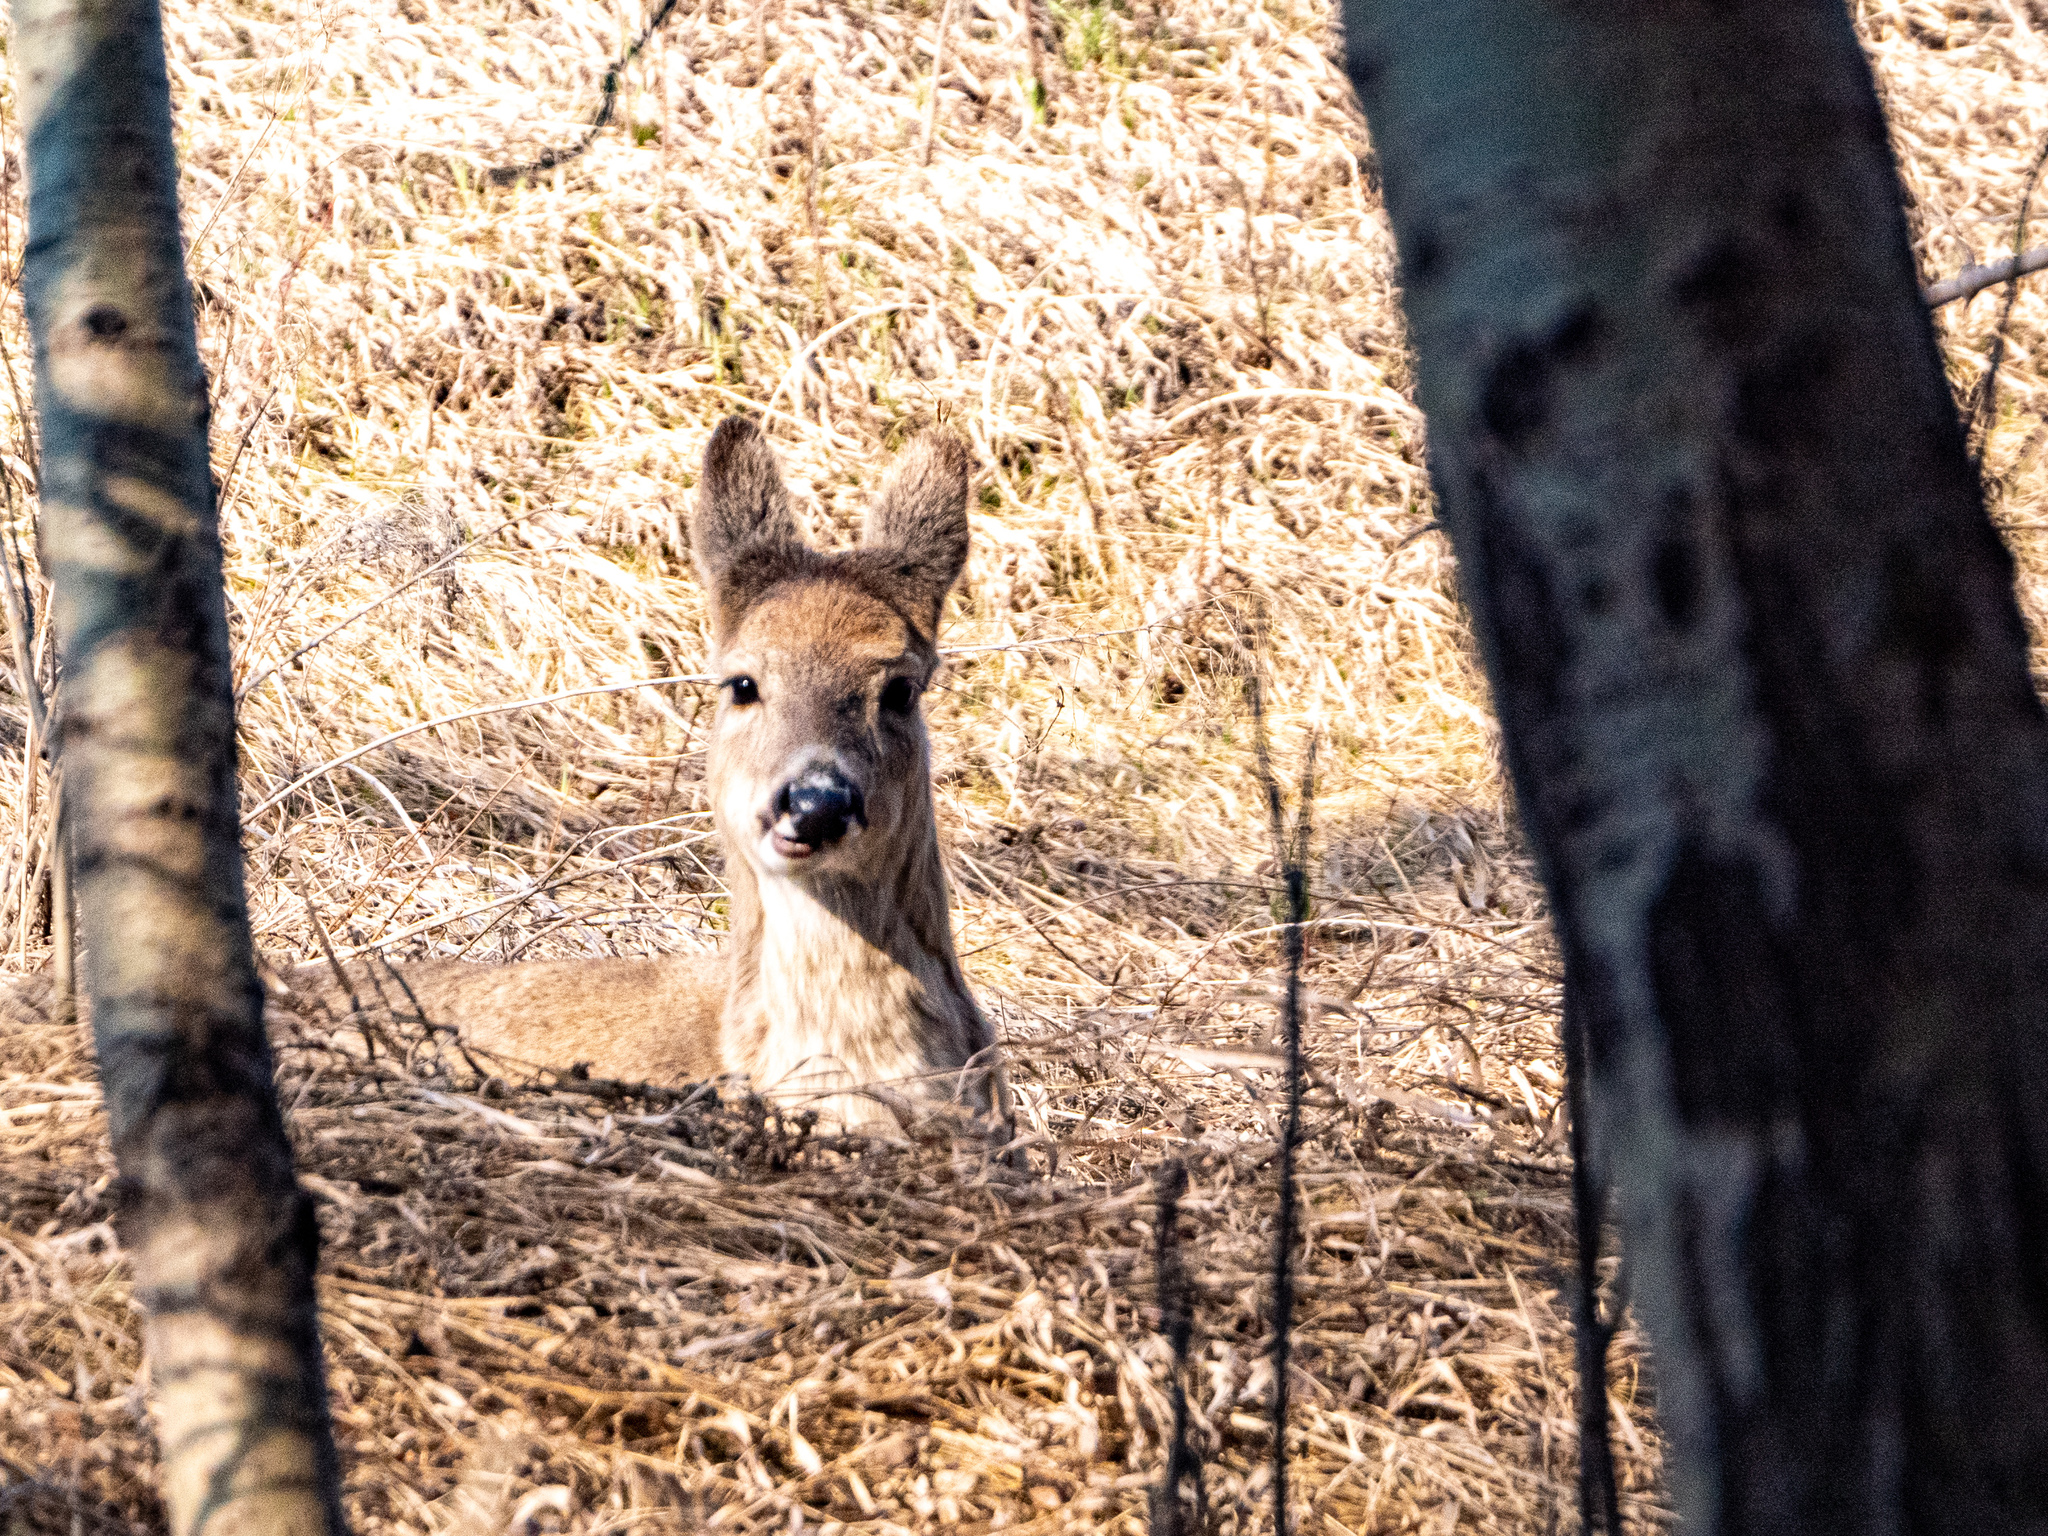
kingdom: Animalia
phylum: Chordata
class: Mammalia
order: Artiodactyla
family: Cervidae
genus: Odocoileus
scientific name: Odocoileus virginianus
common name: White-tailed deer
